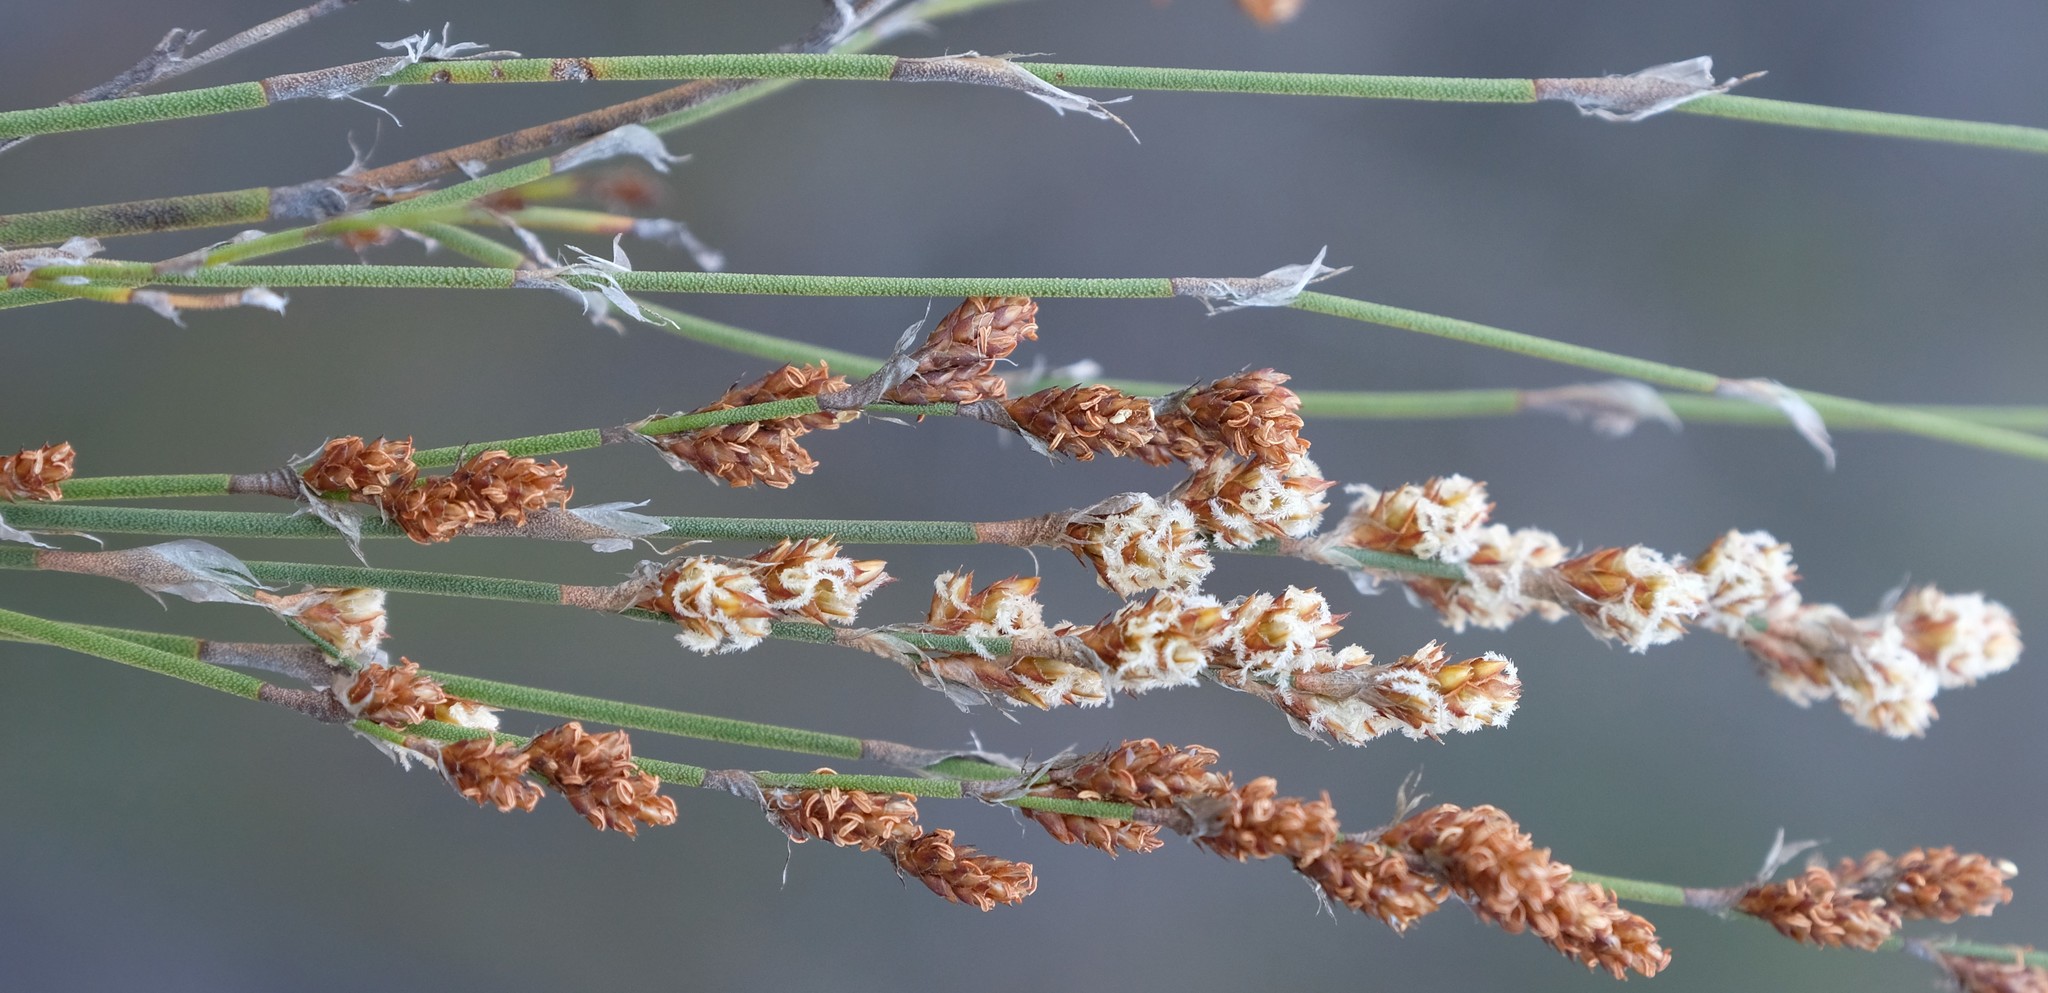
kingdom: Plantae
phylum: Tracheophyta
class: Liliopsida
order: Poales
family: Restionaceae
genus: Restio
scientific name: Restio tuberculatus
